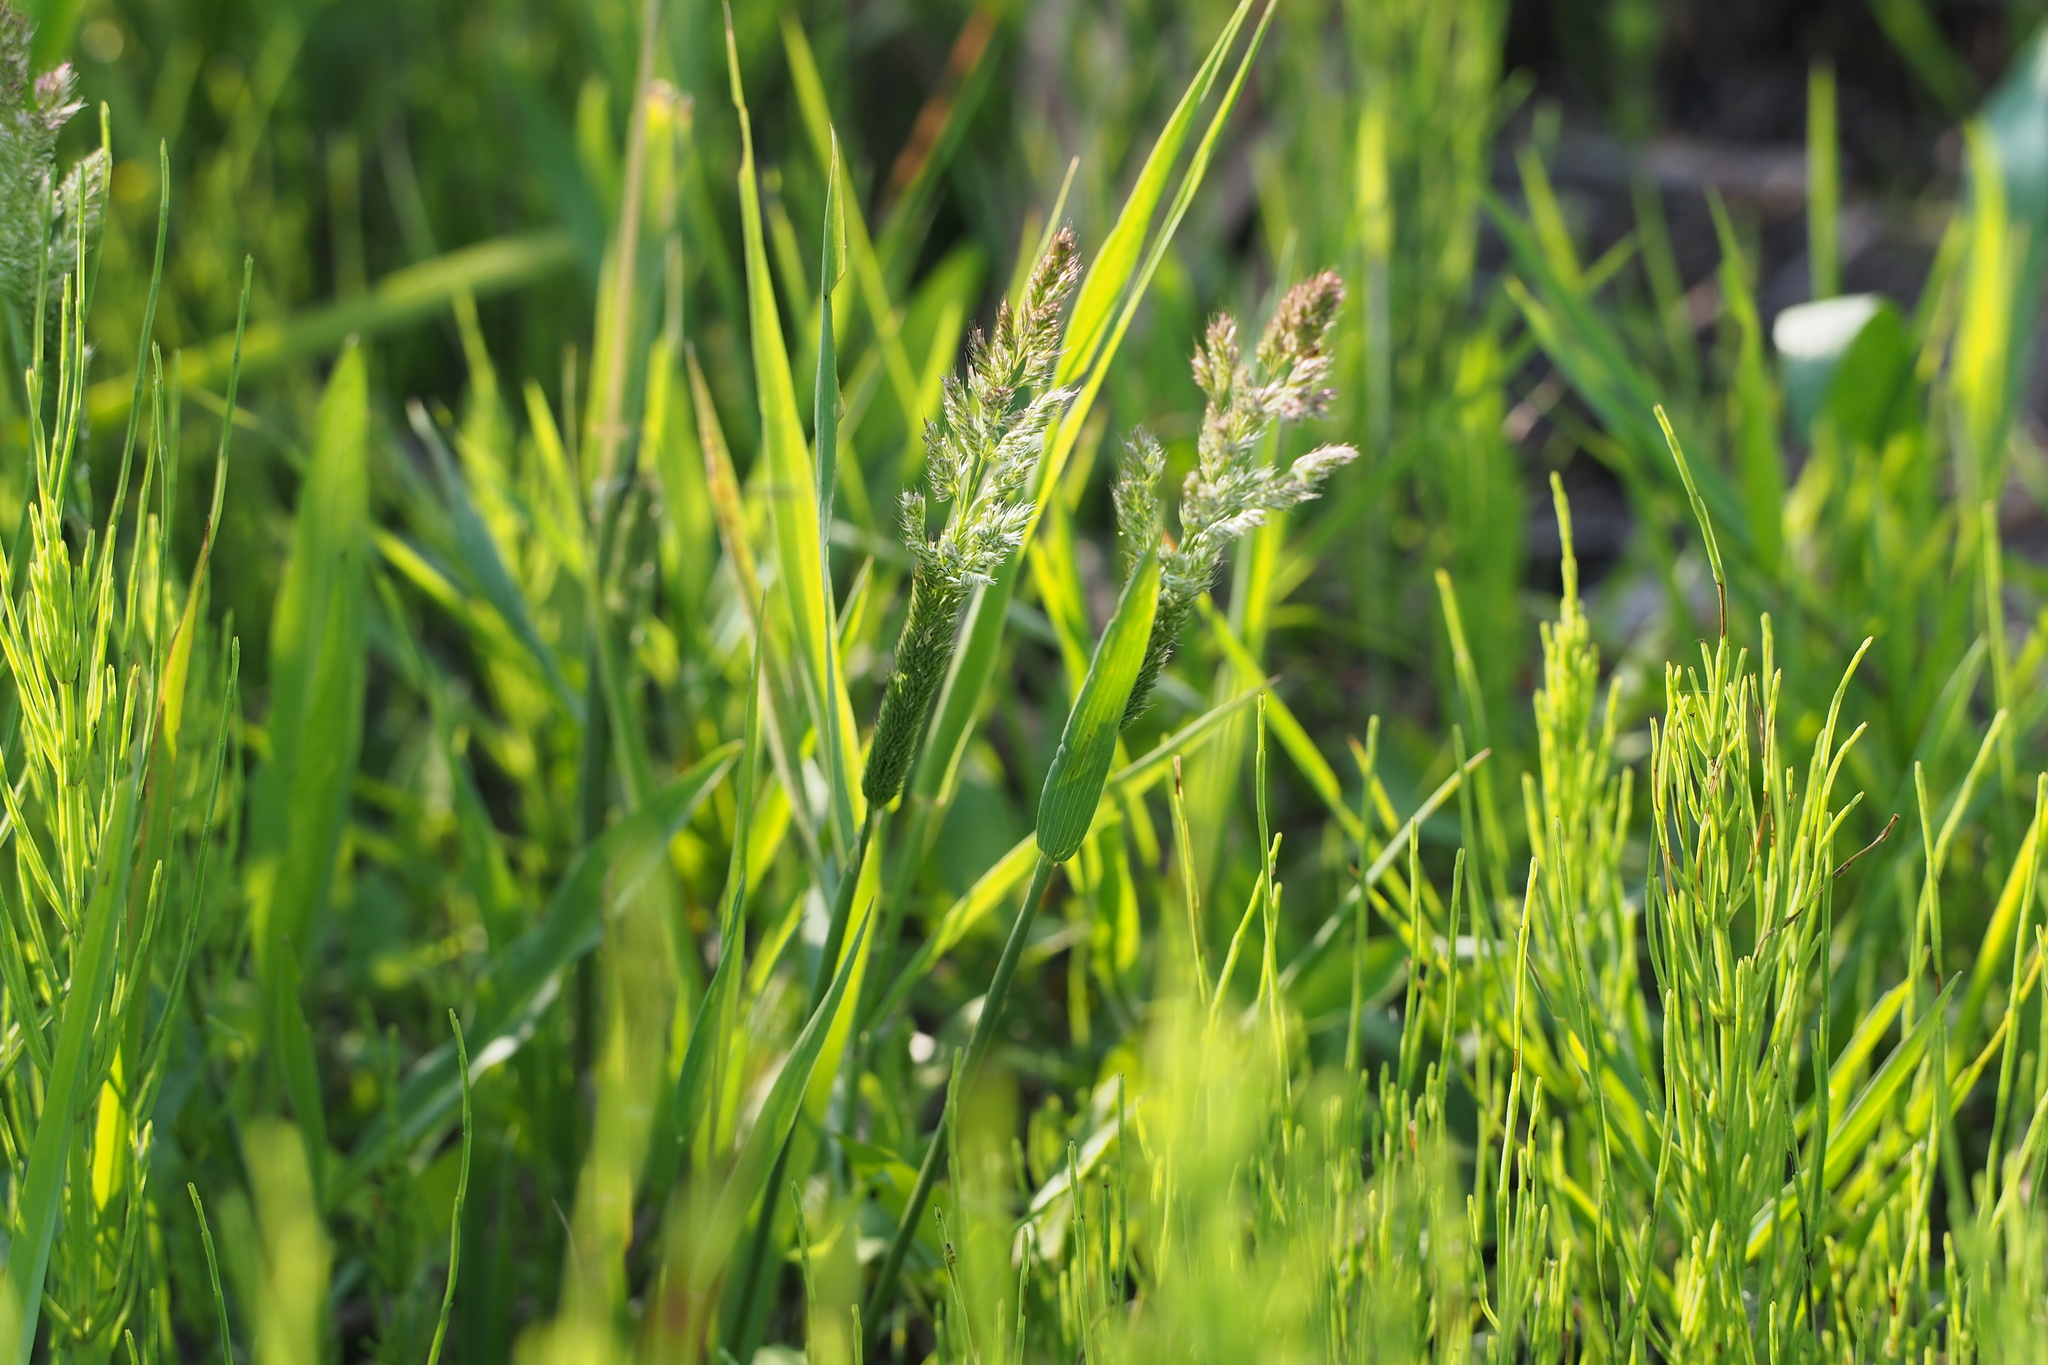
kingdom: Plantae
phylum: Tracheophyta
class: Liliopsida
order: Poales
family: Poaceae
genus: Polypogon
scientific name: Polypogon fugax
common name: Asia minor bluegrass
